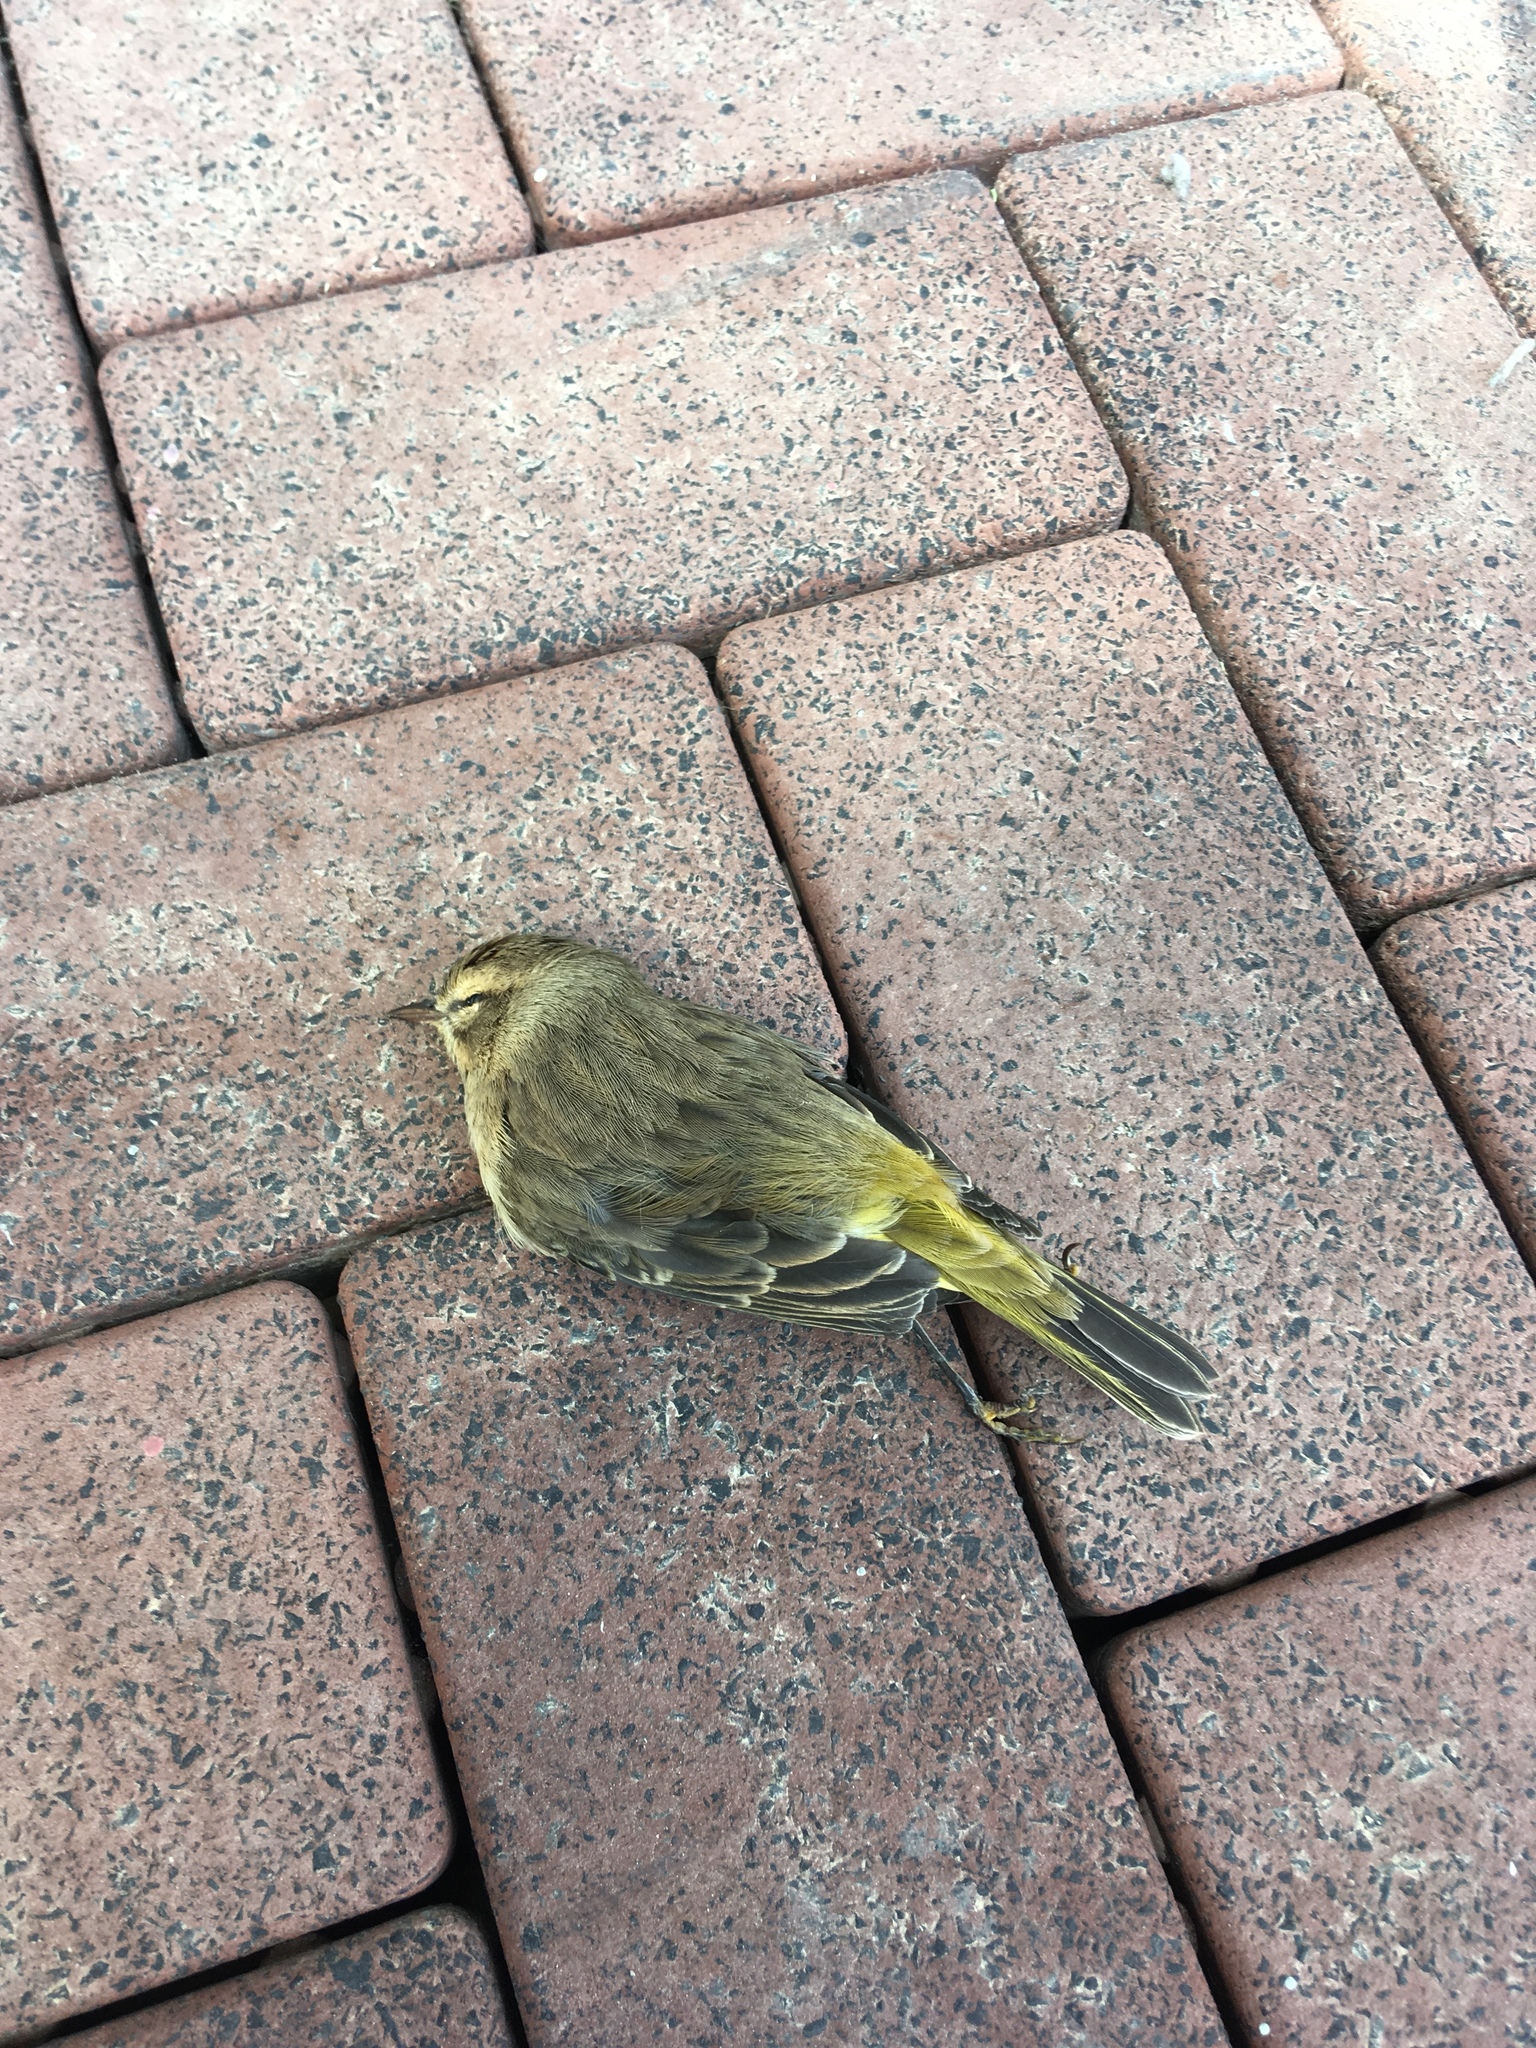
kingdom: Animalia
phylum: Chordata
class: Aves
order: Passeriformes
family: Parulidae
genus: Setophaga
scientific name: Setophaga palmarum
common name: Palm warbler
